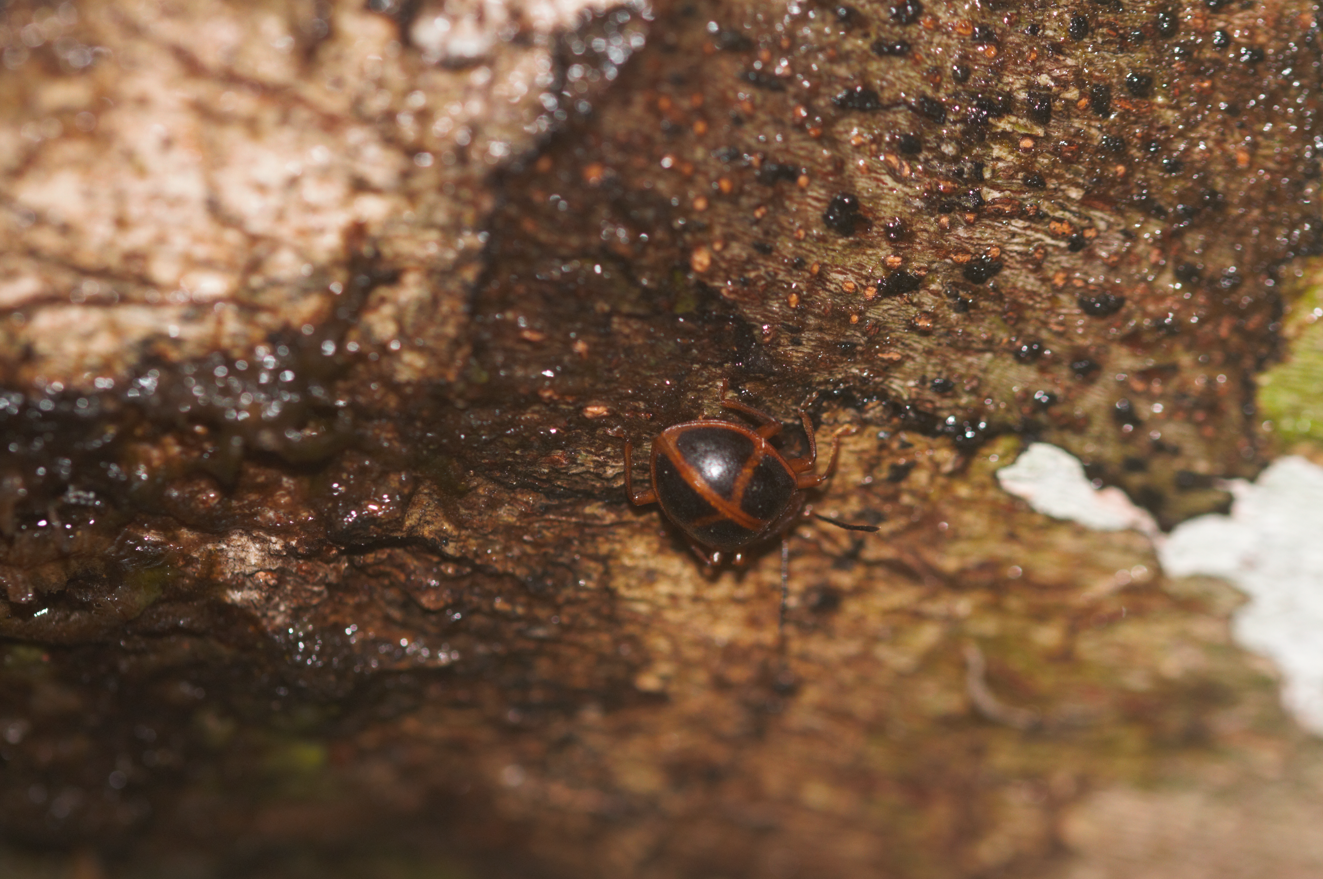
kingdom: Animalia
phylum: Arthropoda
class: Insecta
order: Coleoptera
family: Endomychidae
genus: Corynomalus
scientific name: Corynomalus vestitus
